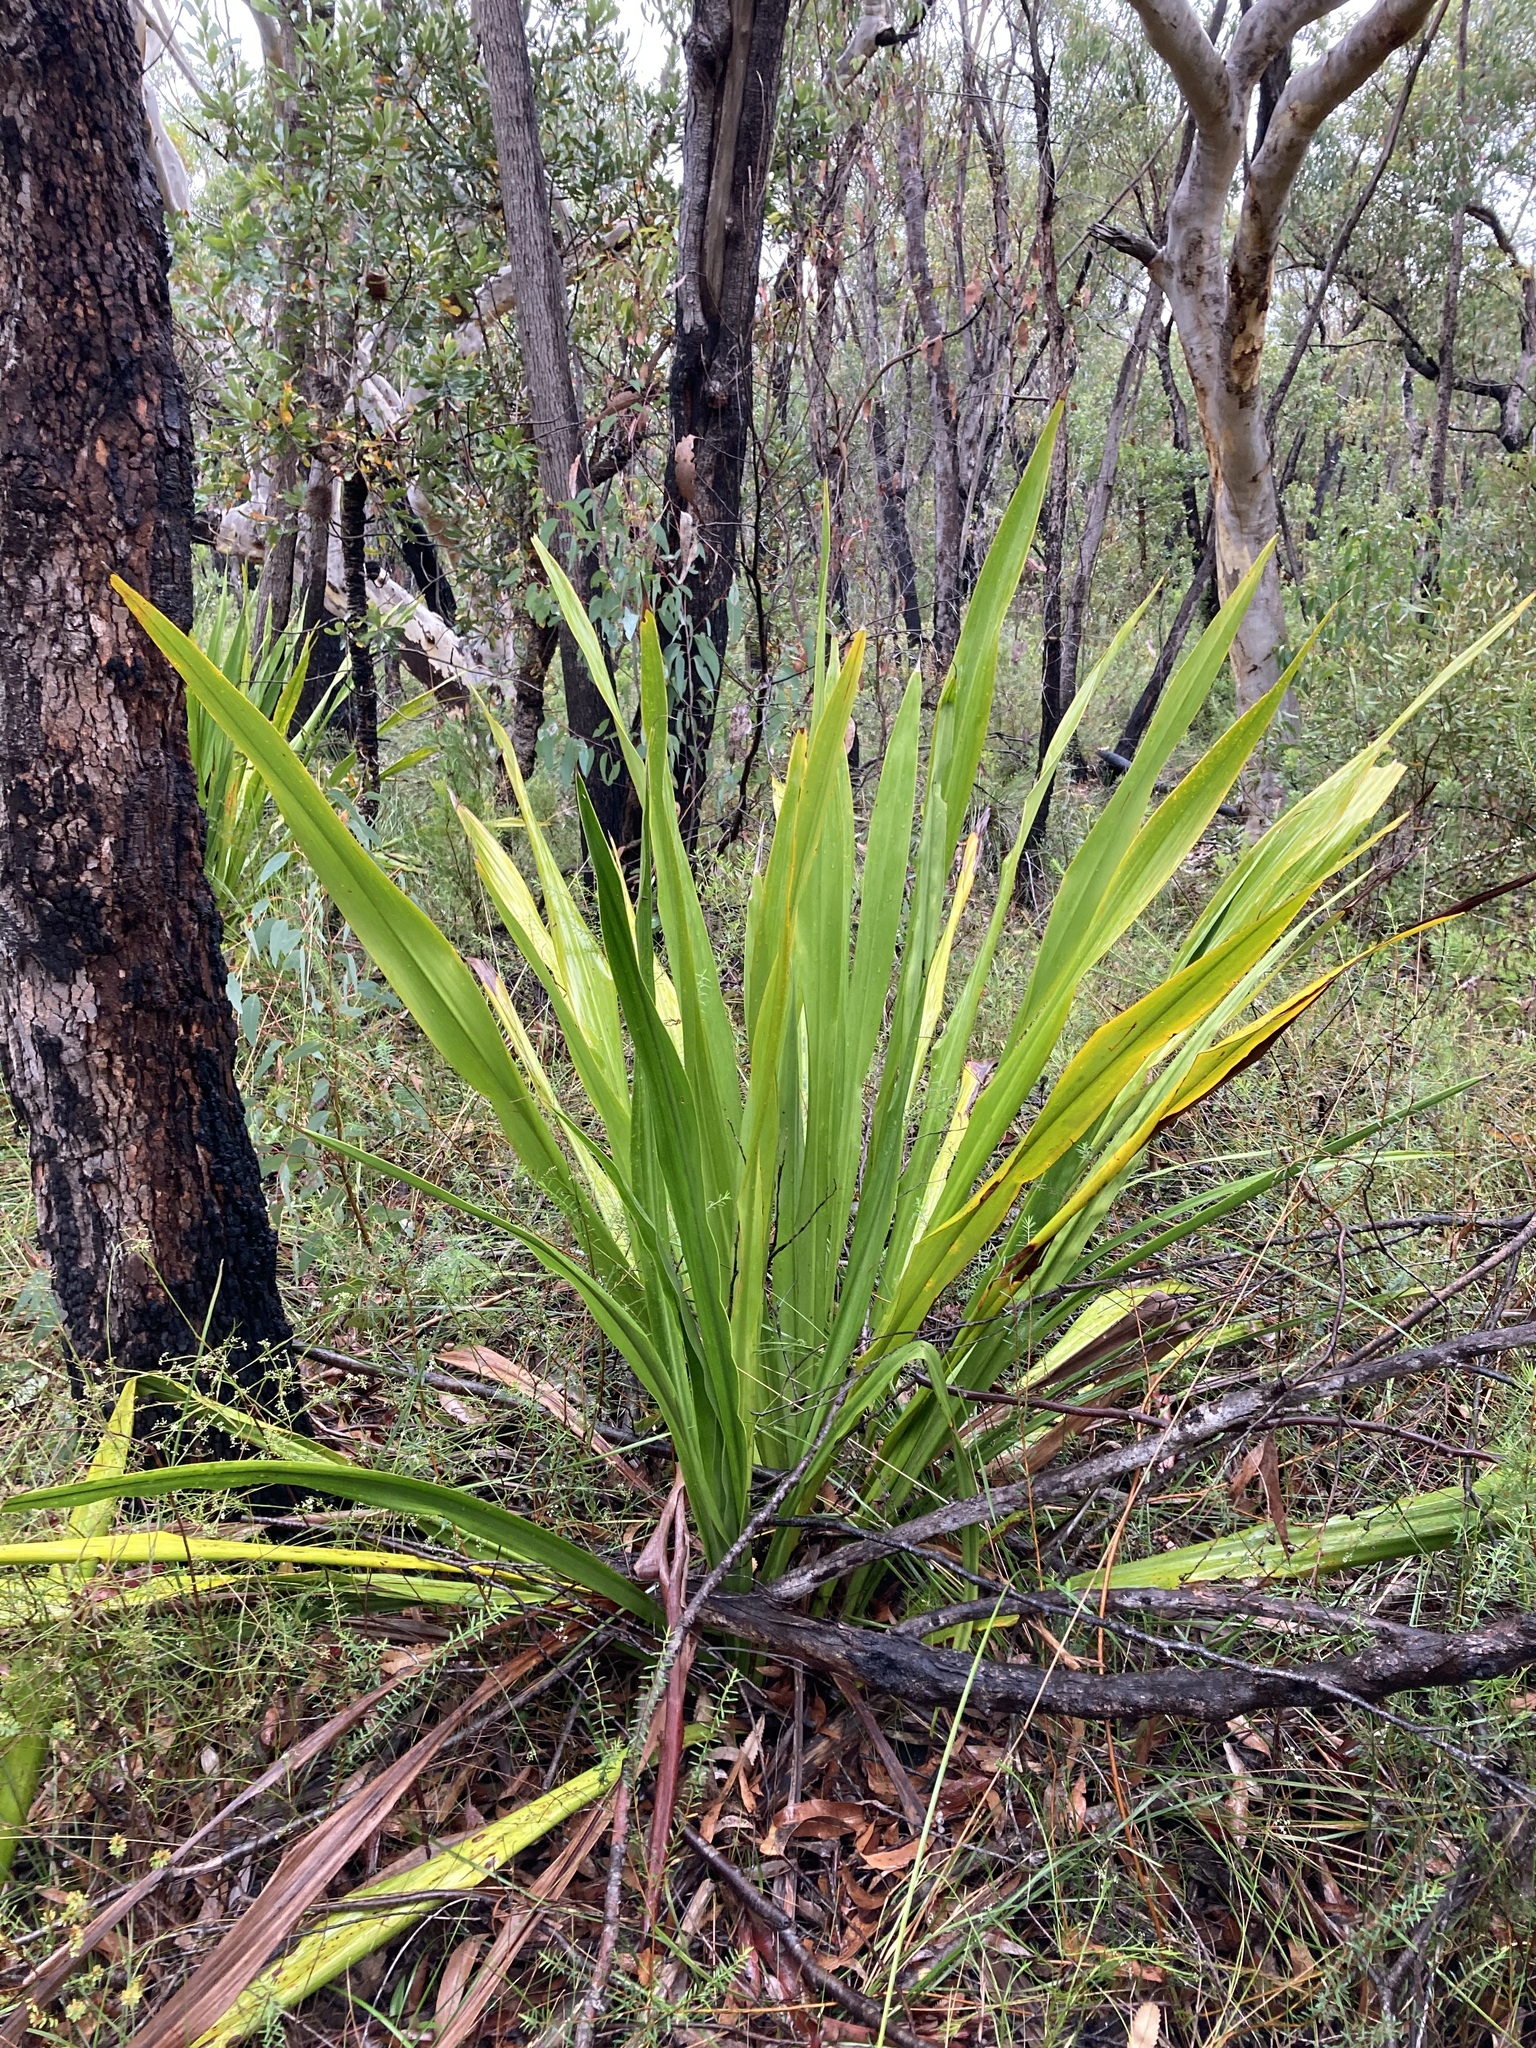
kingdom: Plantae
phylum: Tracheophyta
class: Liliopsida
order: Asparagales
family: Doryanthaceae
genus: Doryanthes
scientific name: Doryanthes excelsa
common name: Giant-lily
